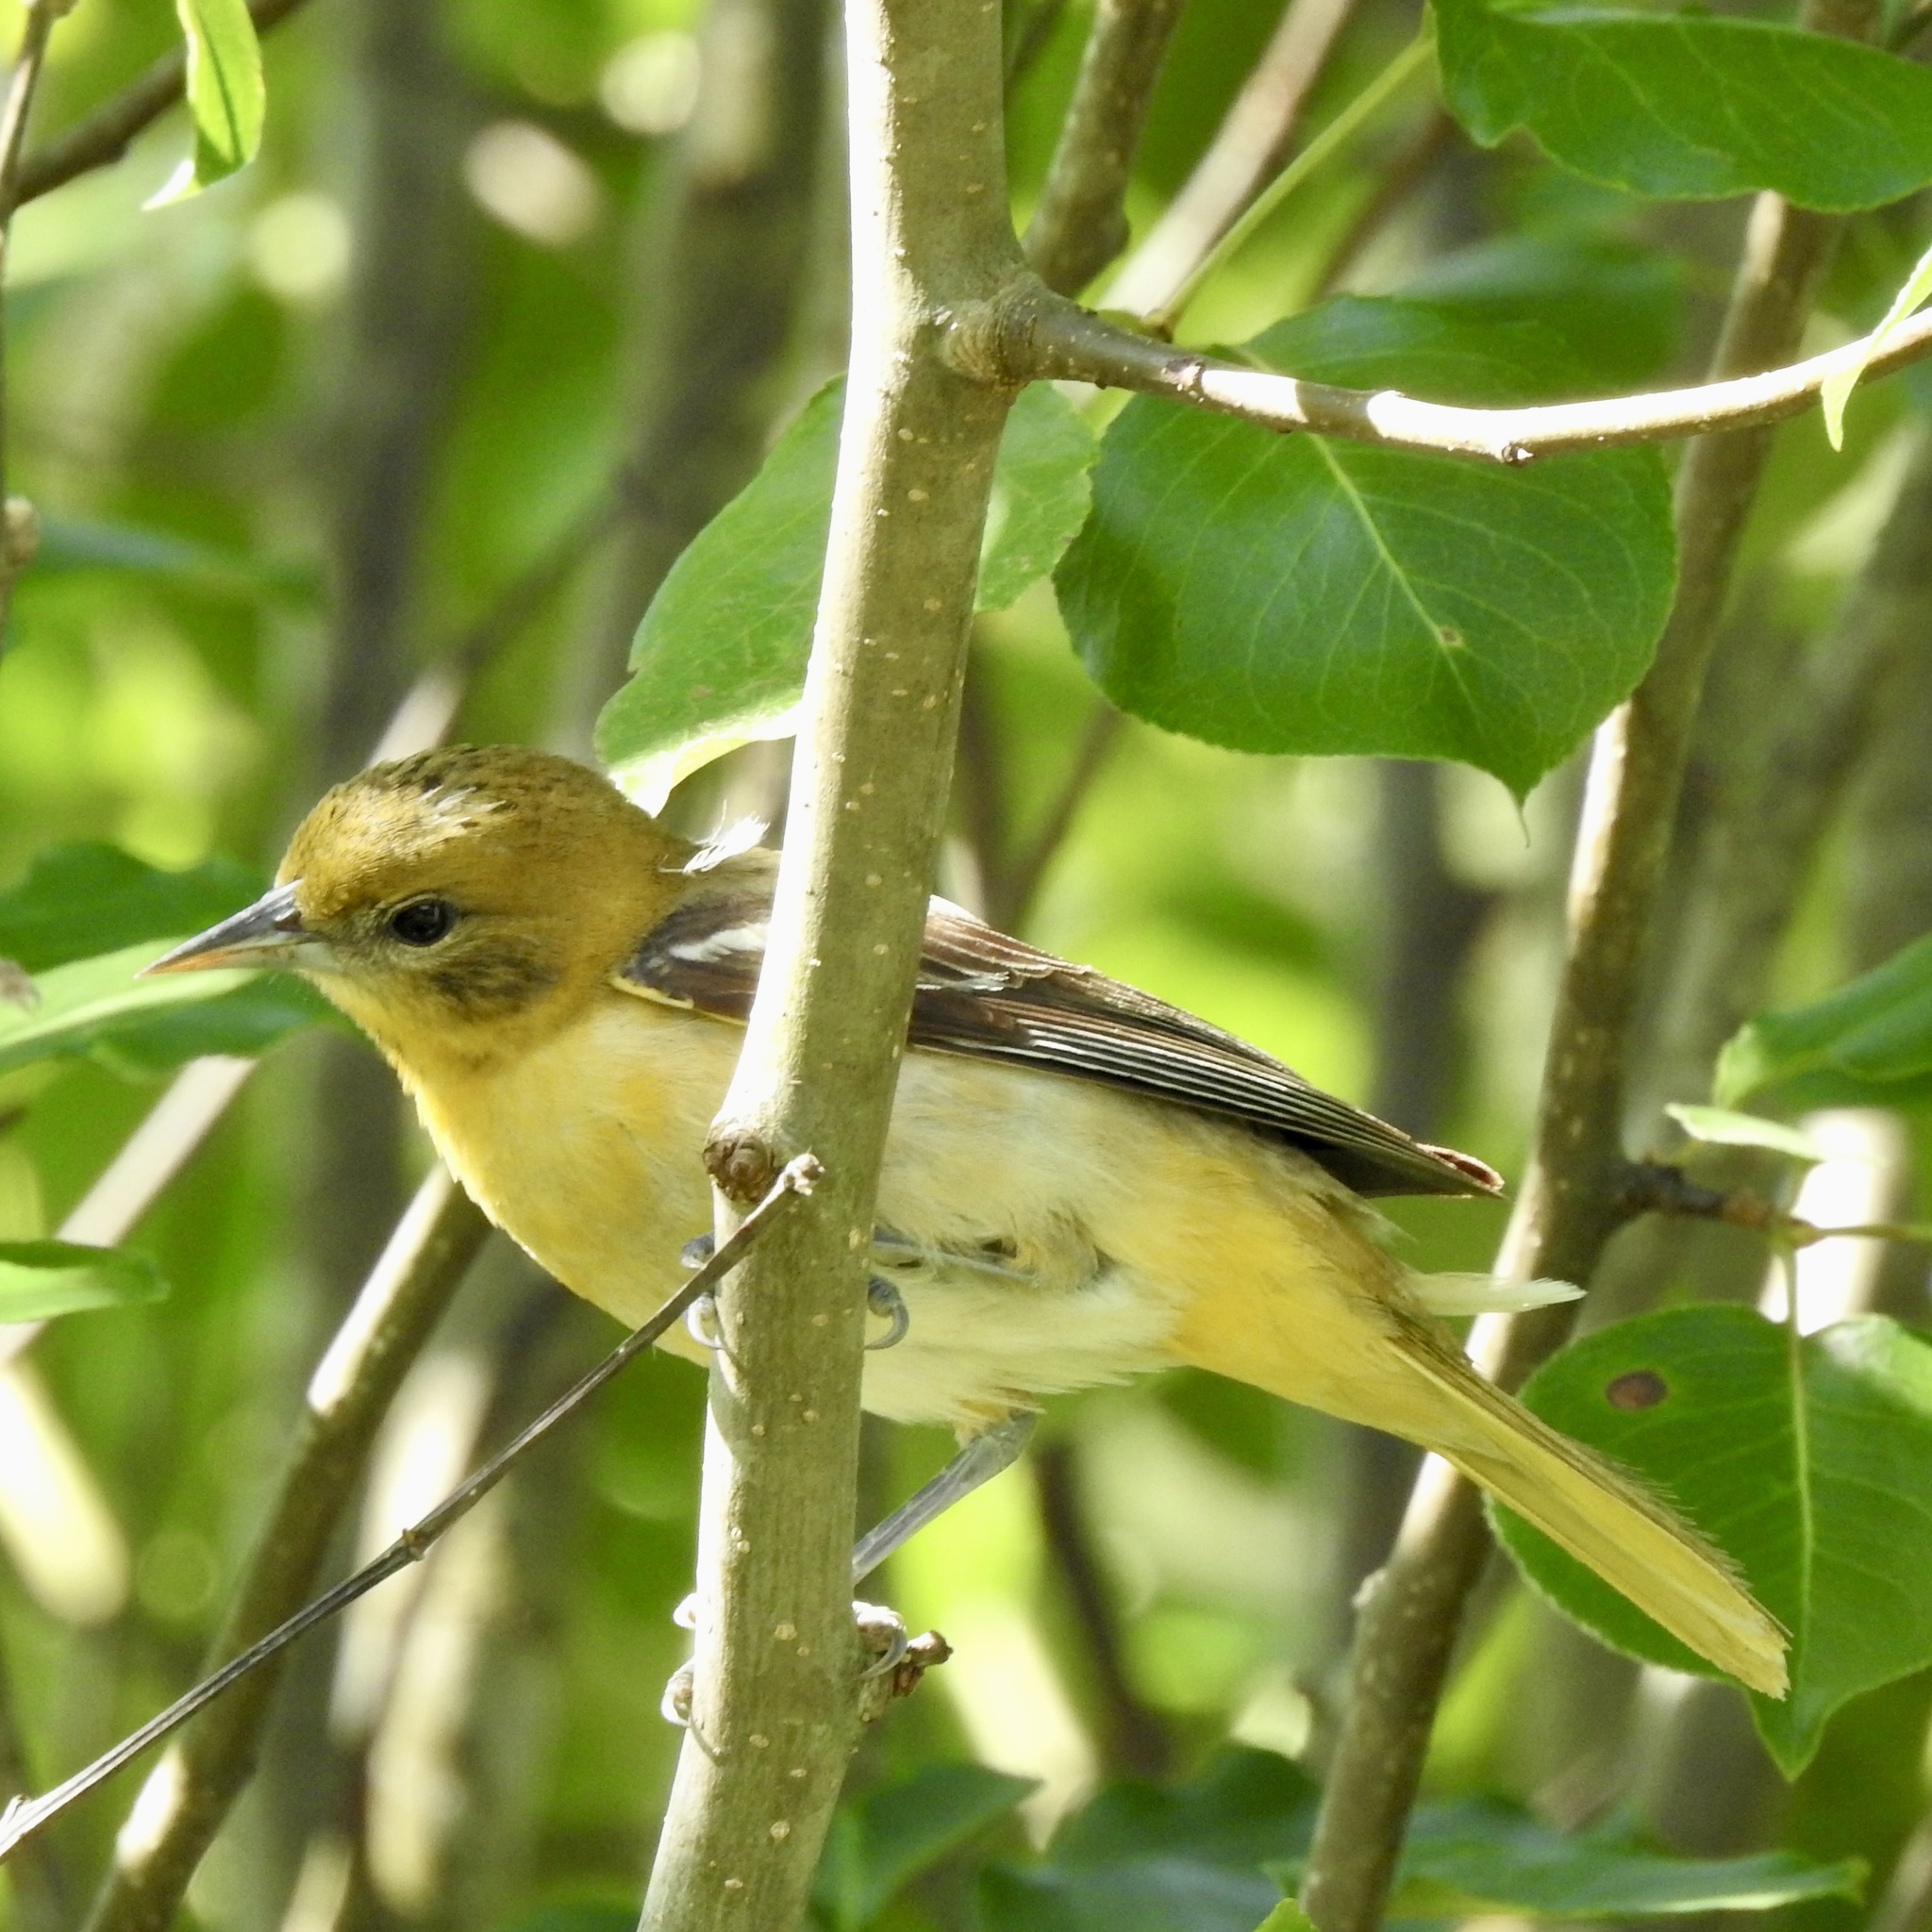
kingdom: Animalia
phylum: Chordata
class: Aves
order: Passeriformes
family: Icteridae
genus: Icterus
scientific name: Icterus galbula
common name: Baltimore oriole
